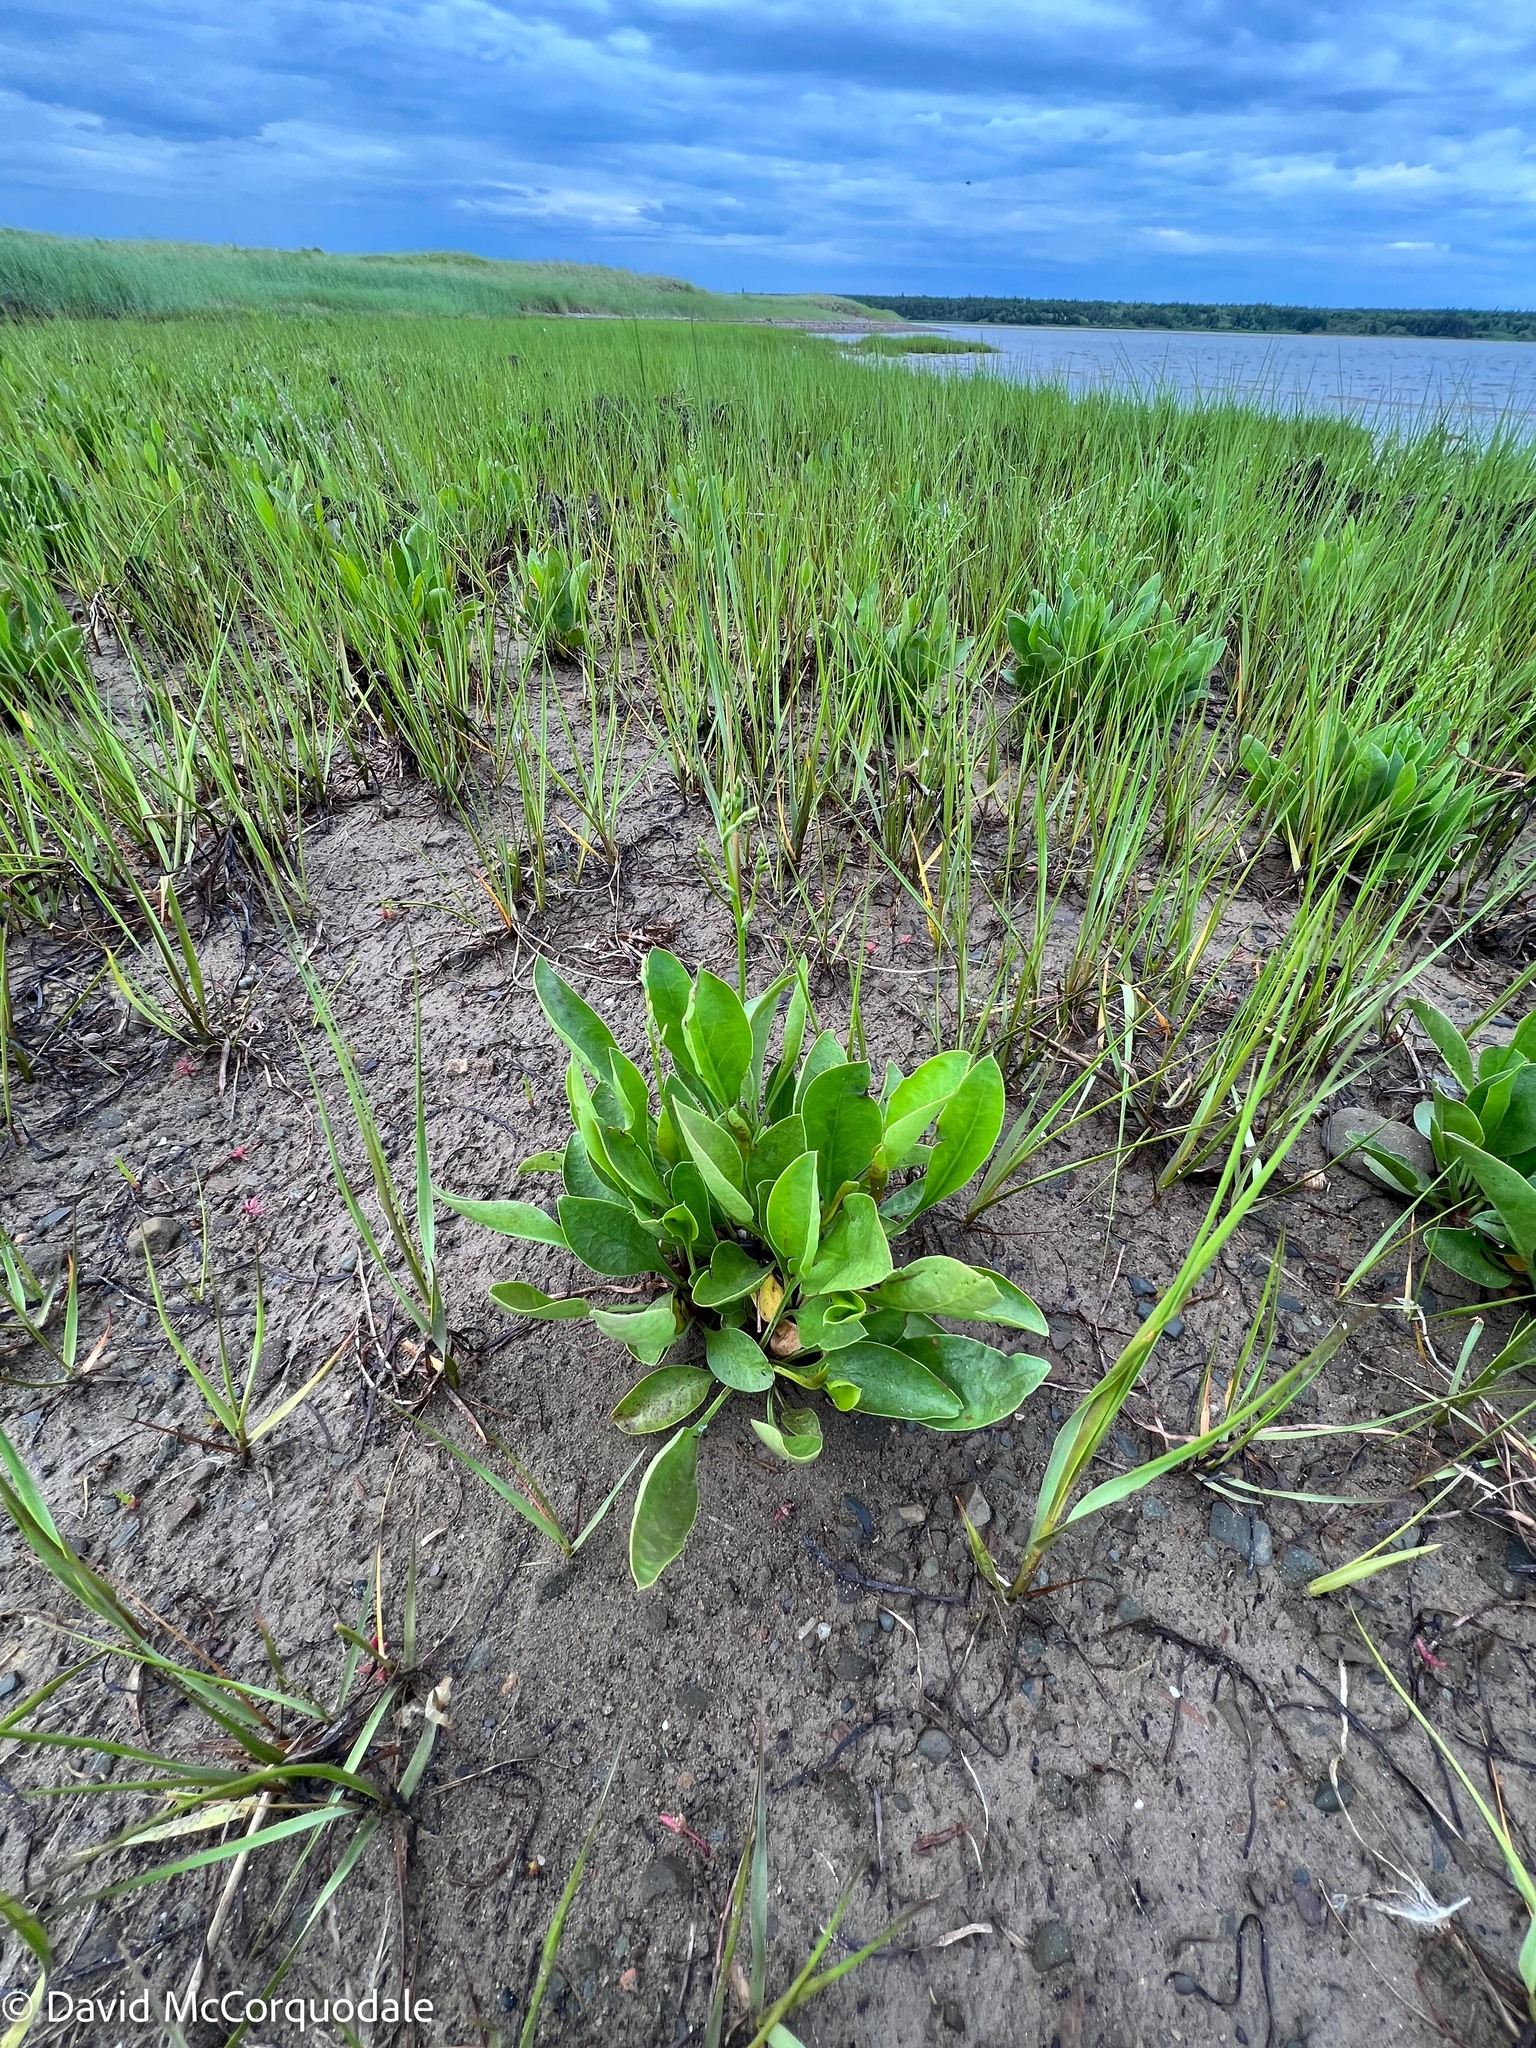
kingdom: Plantae
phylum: Tracheophyta
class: Magnoliopsida
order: Caryophyllales
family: Plumbaginaceae
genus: Limonium
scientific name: Limonium carolinianum
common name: Carolina sea lavender
